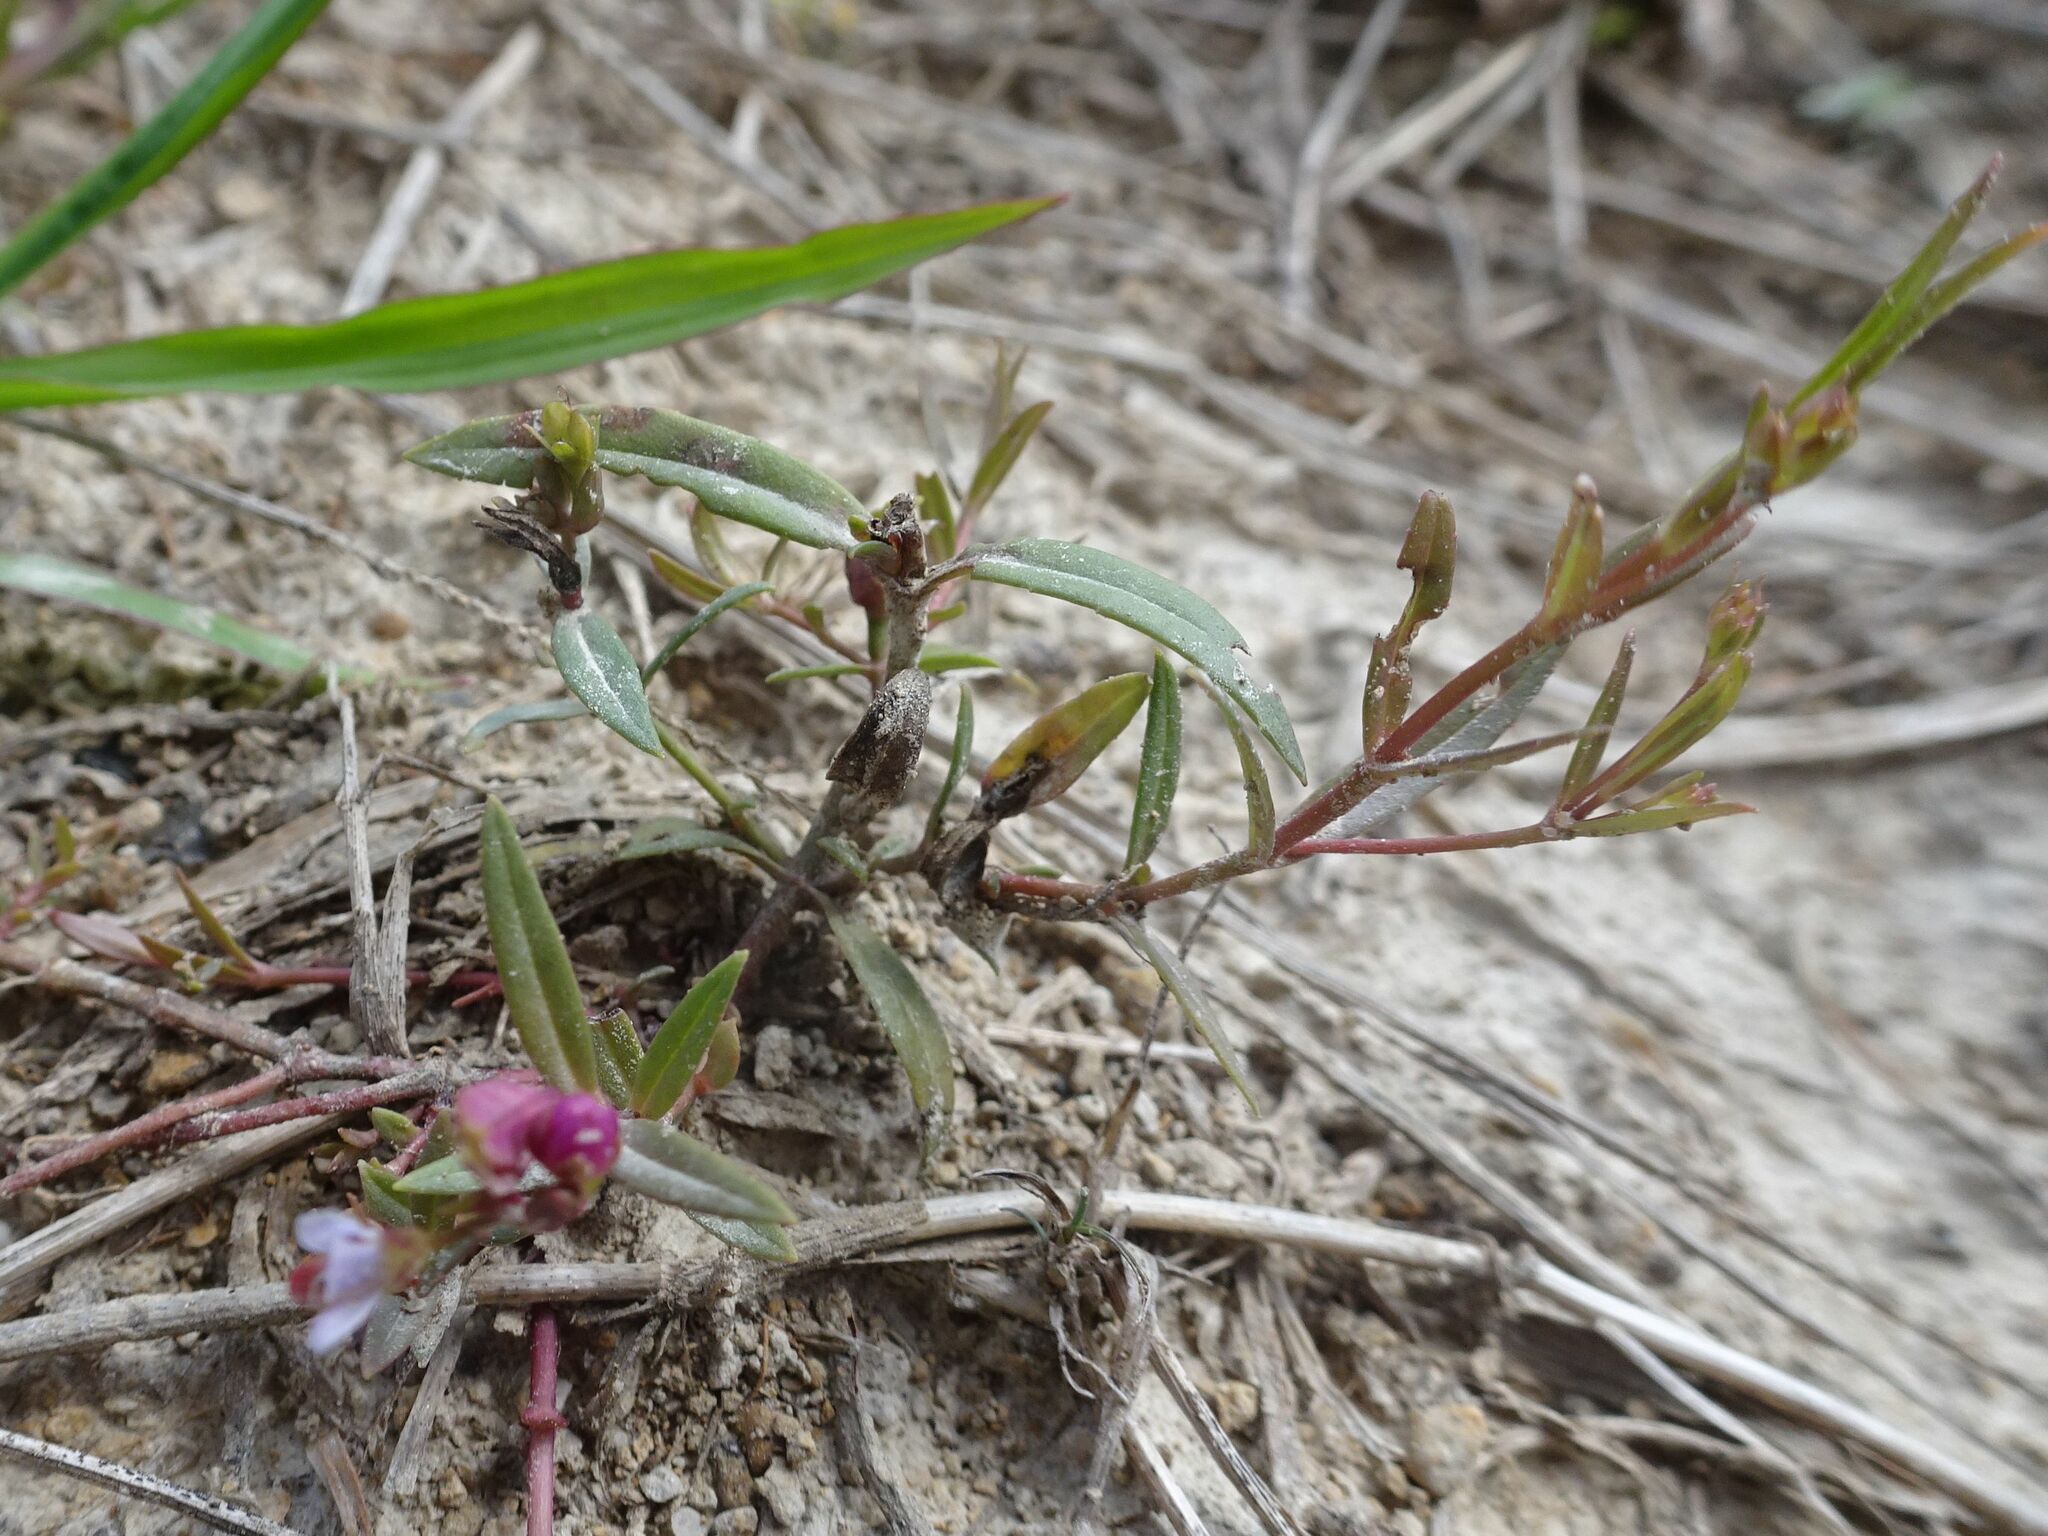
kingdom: Plantae
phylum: Tracheophyta
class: Magnoliopsida
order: Lamiales
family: Plantaginaceae
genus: Veronica
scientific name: Veronica scutellata
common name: Marsh speedwell
